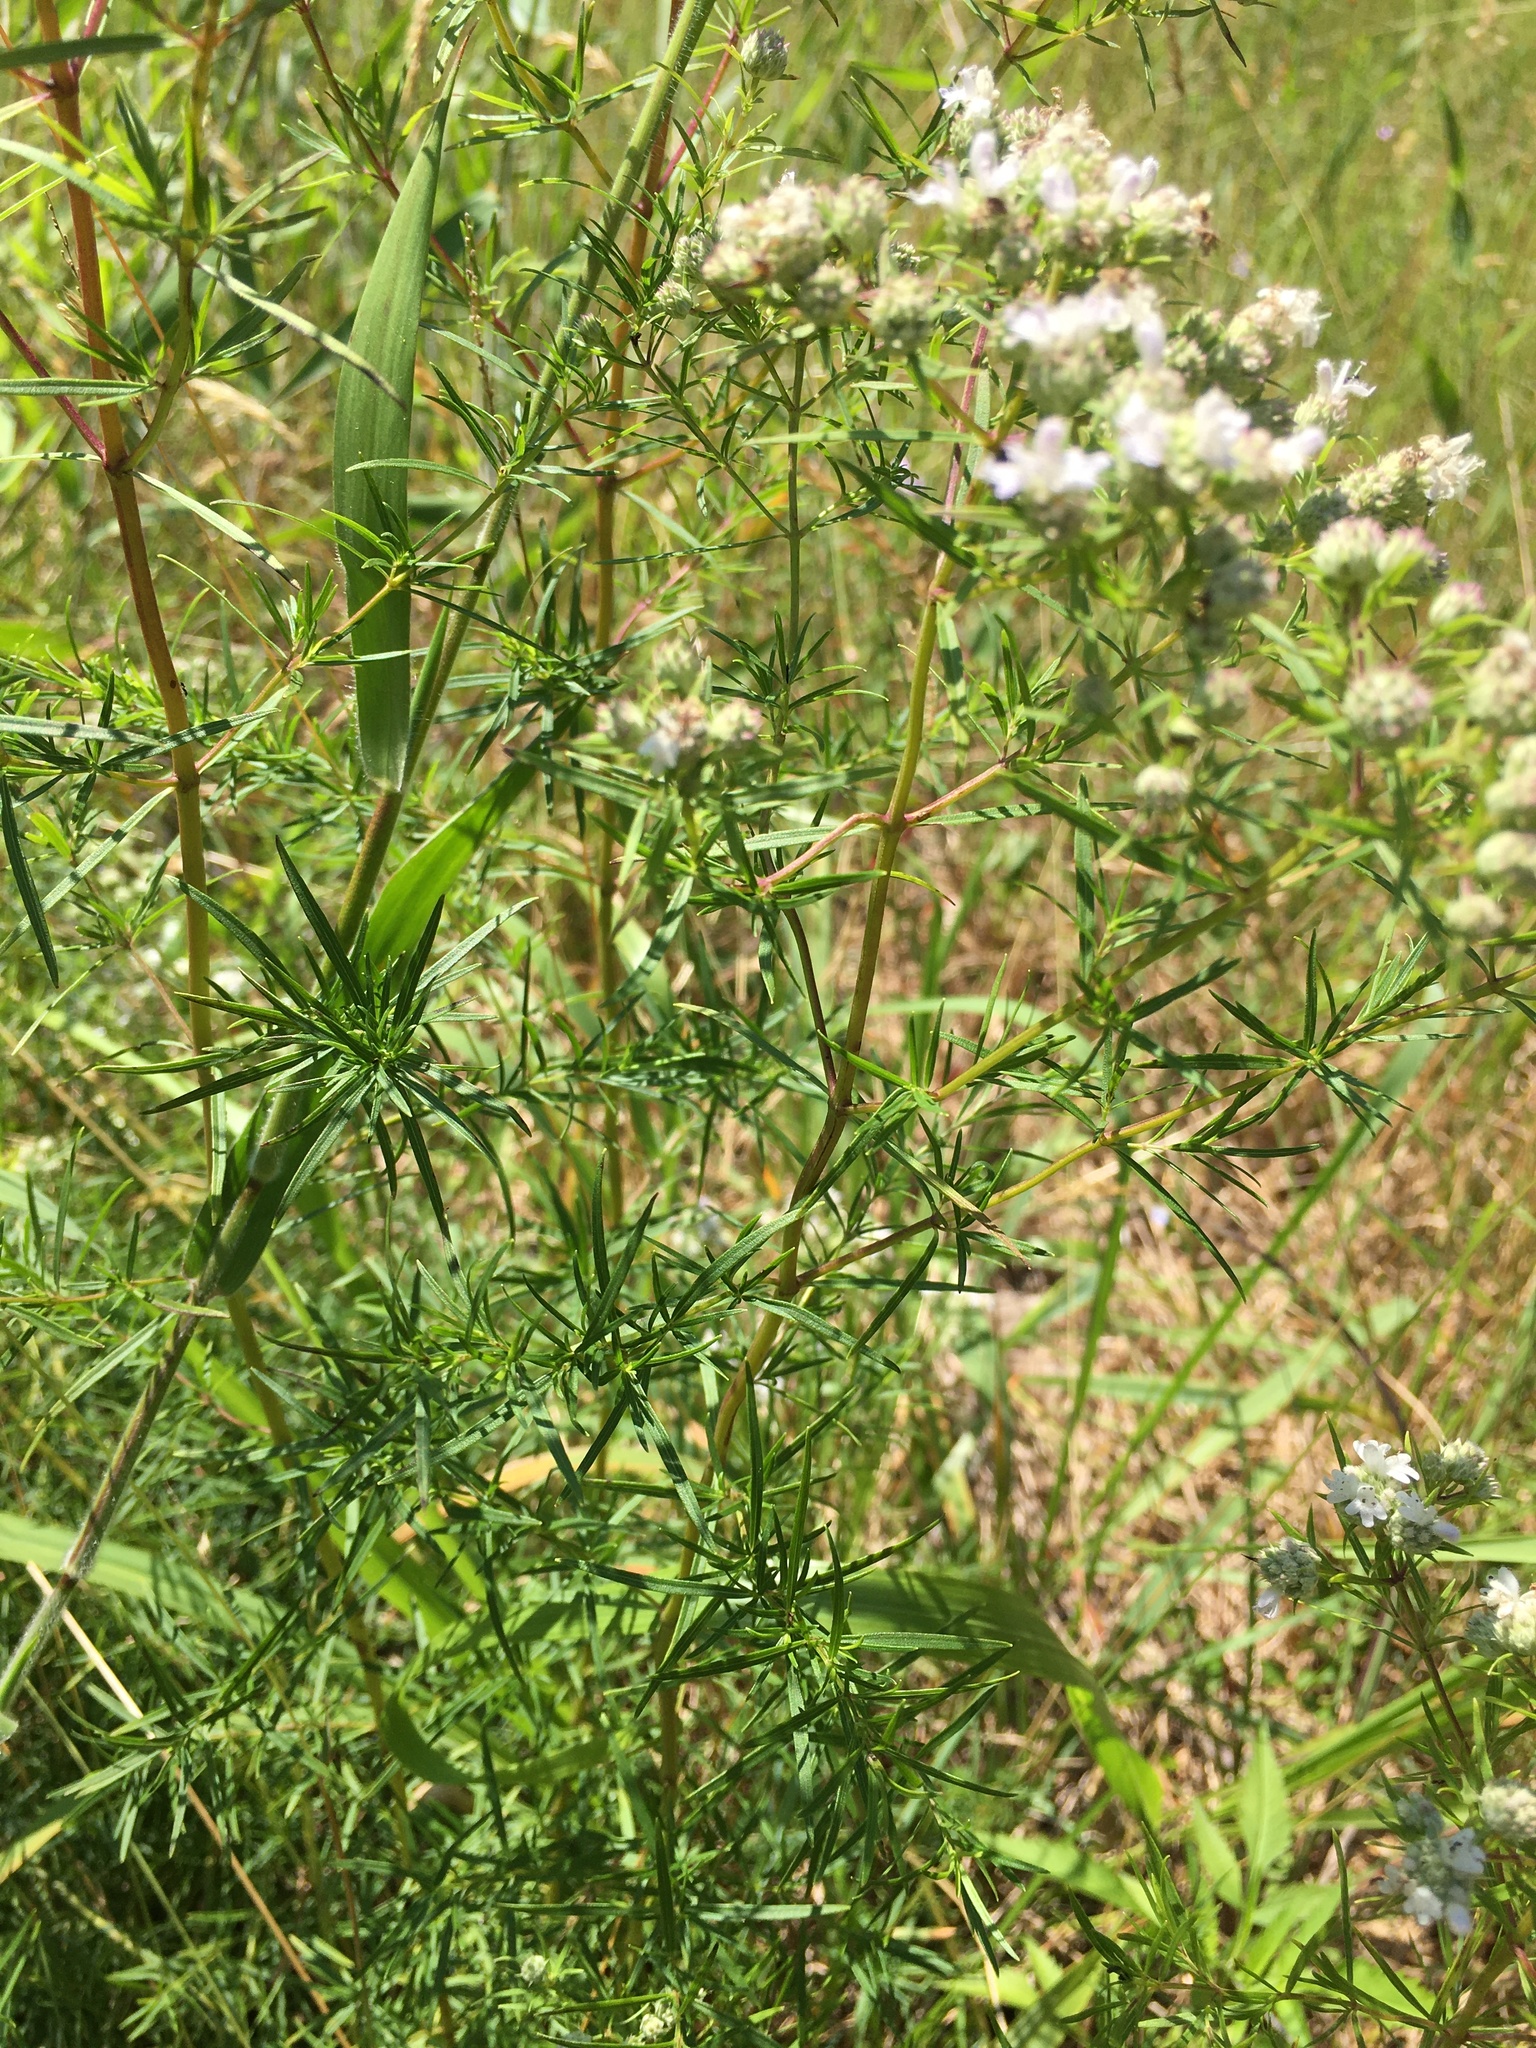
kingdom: Plantae
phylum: Tracheophyta
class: Magnoliopsida
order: Lamiales
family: Lamiaceae
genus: Pycnanthemum
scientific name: Pycnanthemum tenuifolium
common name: Narrow-leaf mountain-mint
